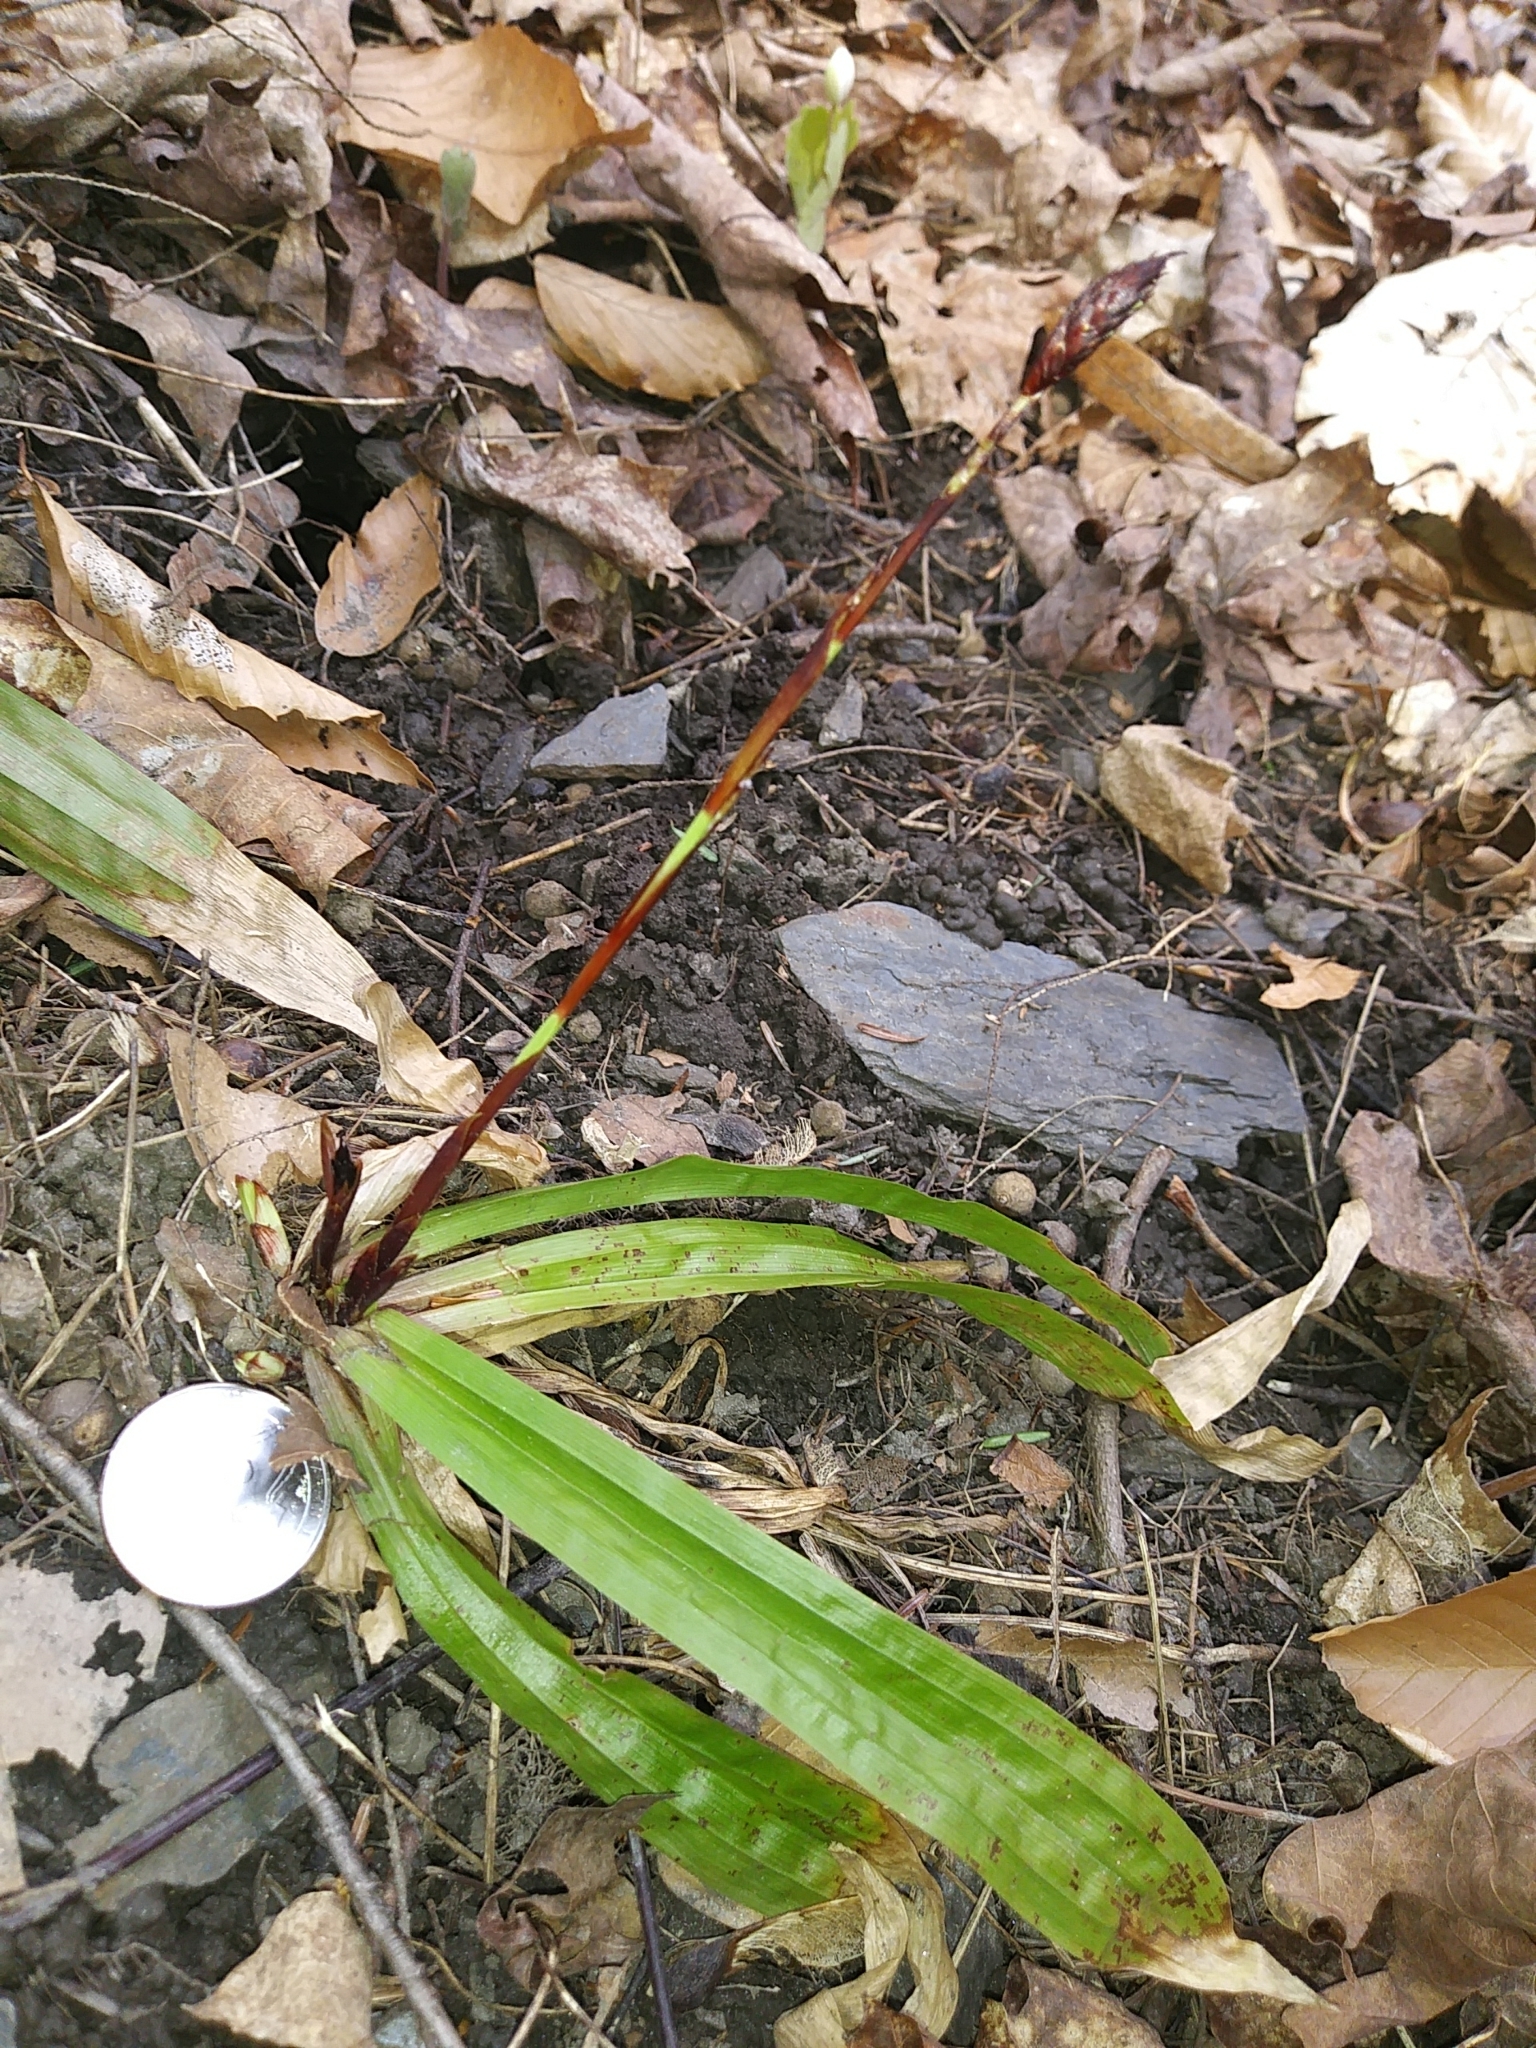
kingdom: Plantae
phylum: Tracheophyta
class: Liliopsida
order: Poales
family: Cyperaceae
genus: Carex
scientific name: Carex plantaginea
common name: Plantain-leaved sedge
